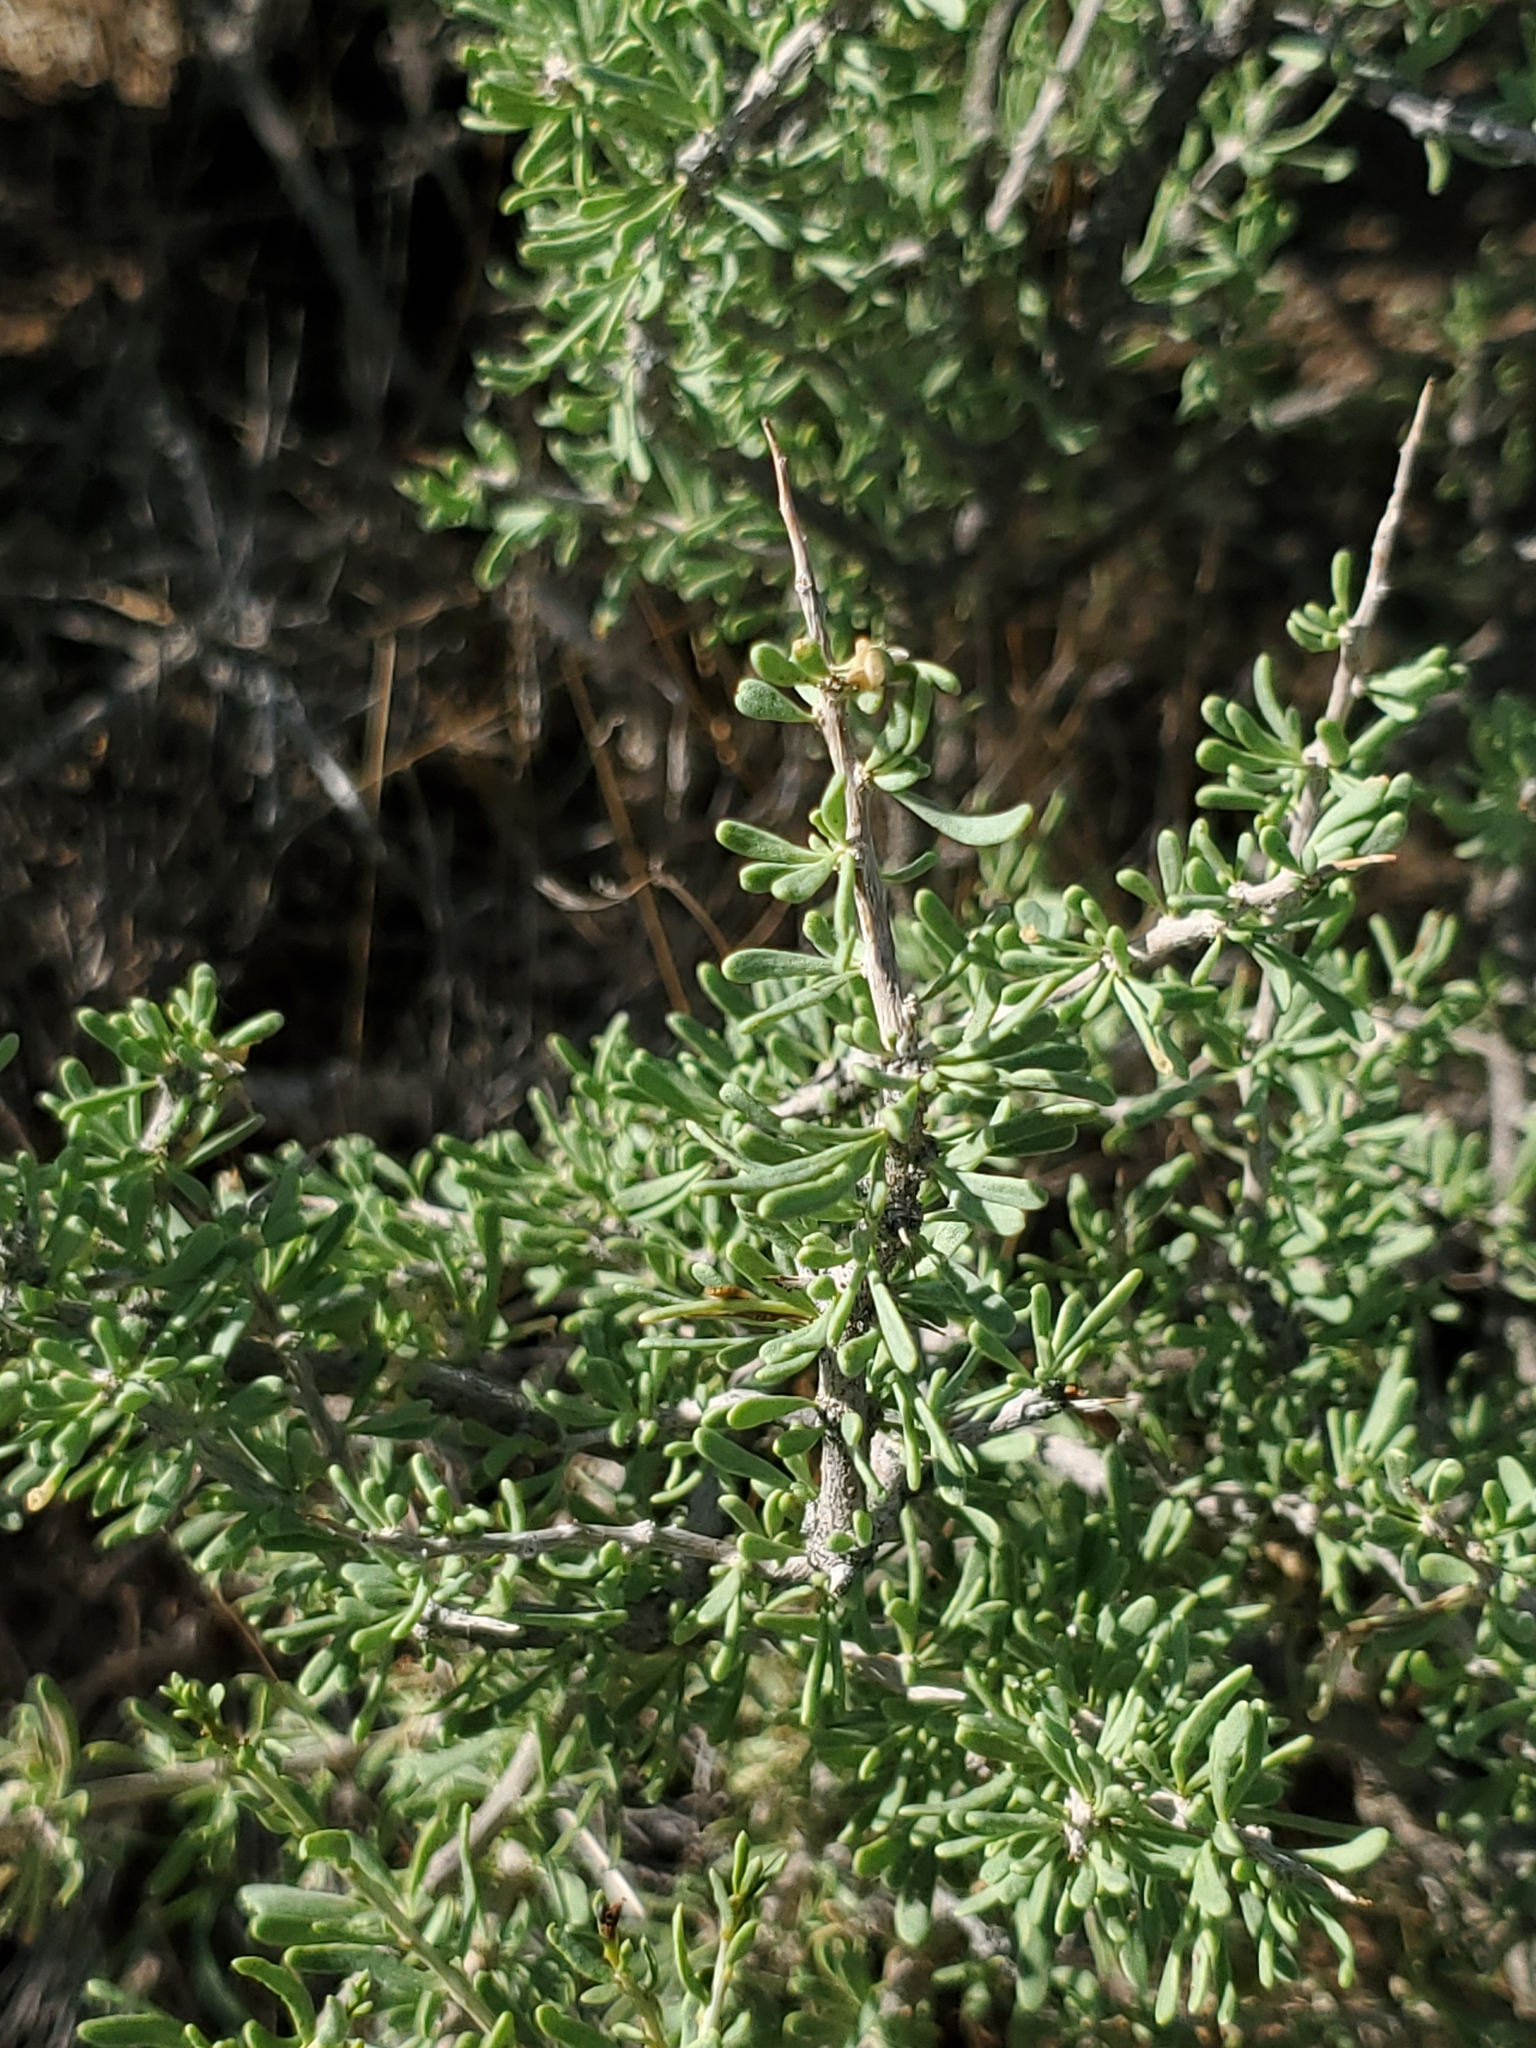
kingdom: Plantae
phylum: Tracheophyta
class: Magnoliopsida
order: Solanales
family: Solanaceae
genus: Lycium
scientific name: Lycium andersonii
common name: Water-jacket
